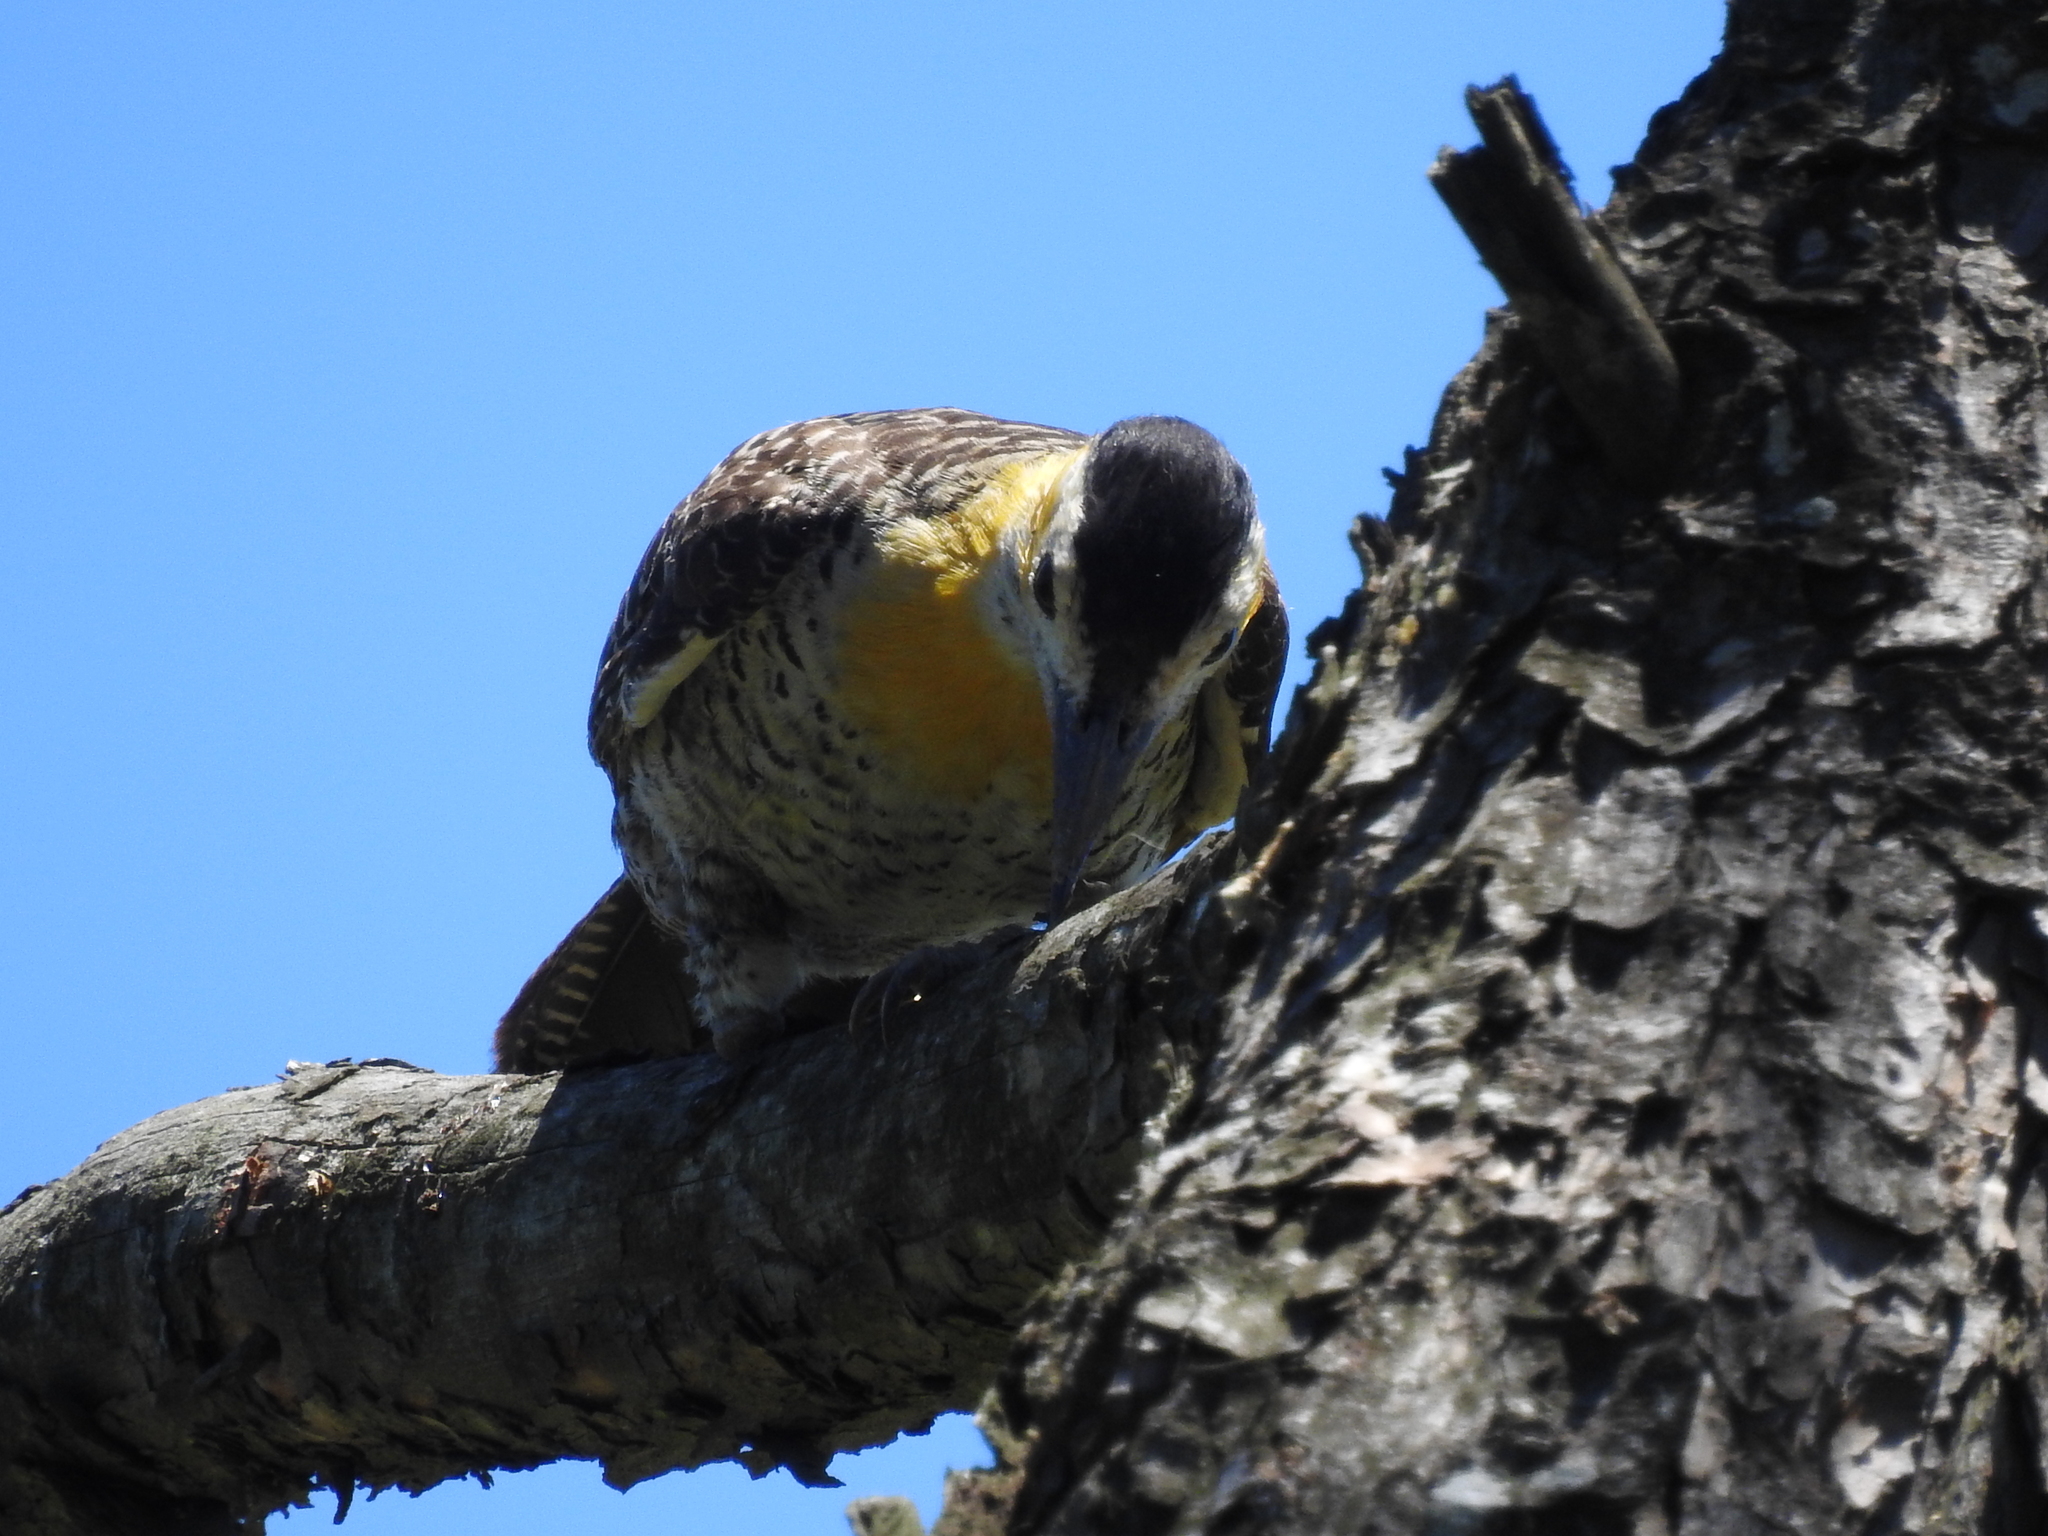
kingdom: Animalia
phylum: Chordata
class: Aves
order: Piciformes
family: Picidae
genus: Colaptes
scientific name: Colaptes campestris
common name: Campo flicker
